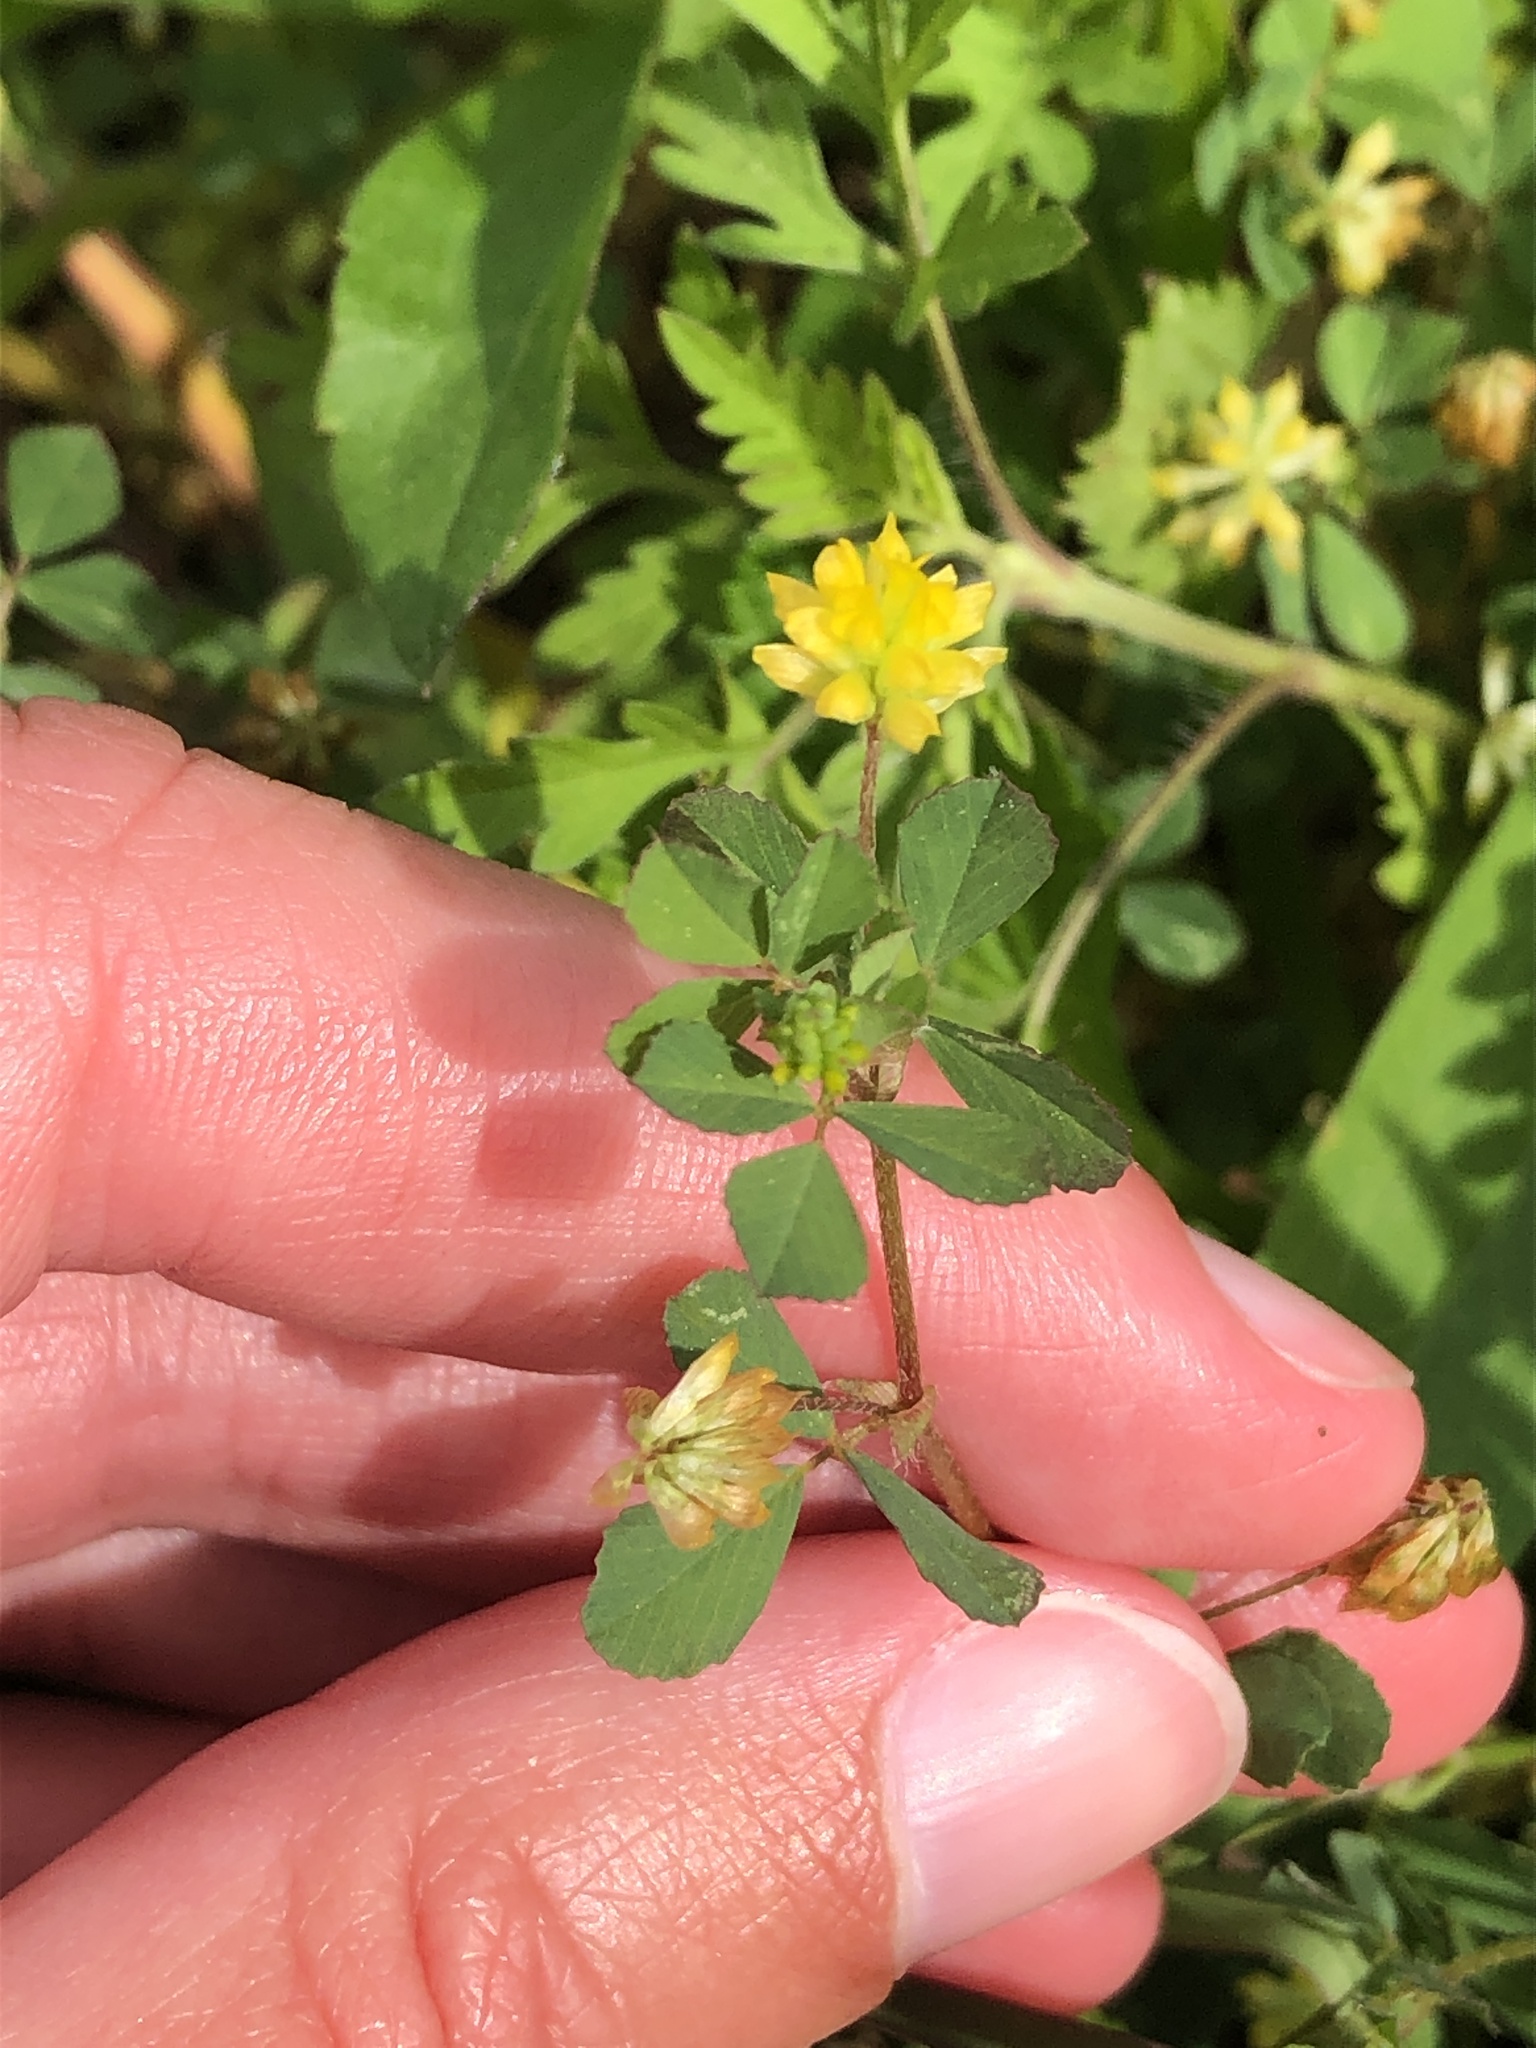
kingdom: Plantae
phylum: Tracheophyta
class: Magnoliopsida
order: Fabales
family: Fabaceae
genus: Trifolium
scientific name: Trifolium dubium
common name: Suckling clover
